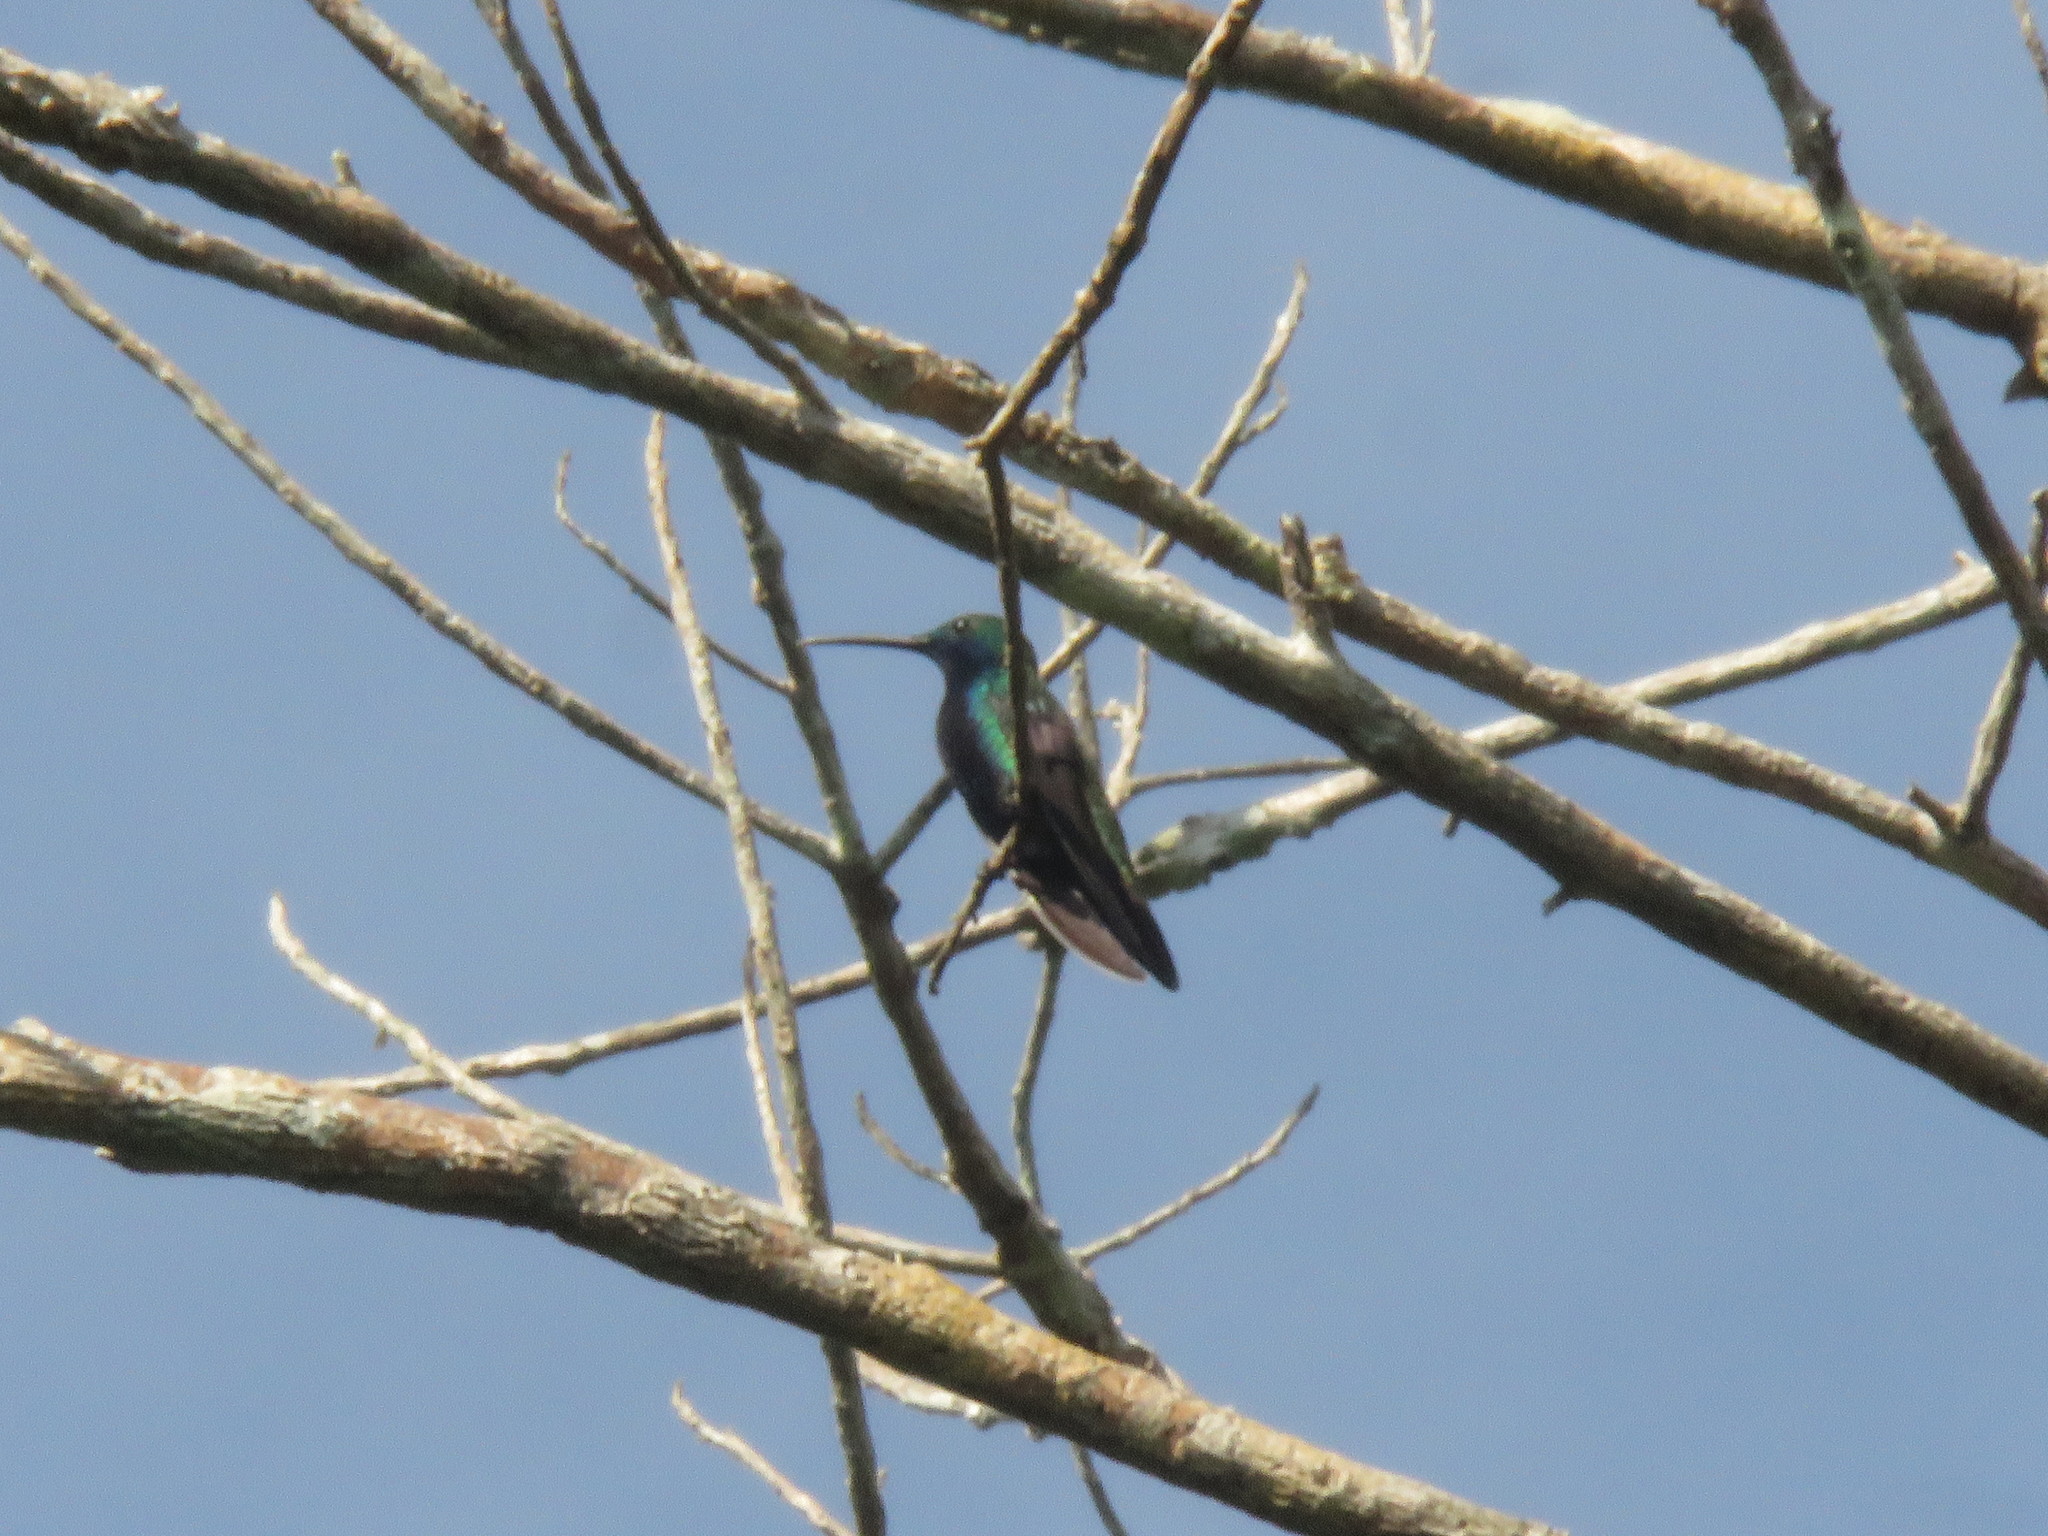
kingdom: Animalia
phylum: Chordata
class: Aves
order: Apodiformes
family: Trochilidae
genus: Anthracothorax
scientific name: Anthracothorax nigricollis
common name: Black-throated mango
